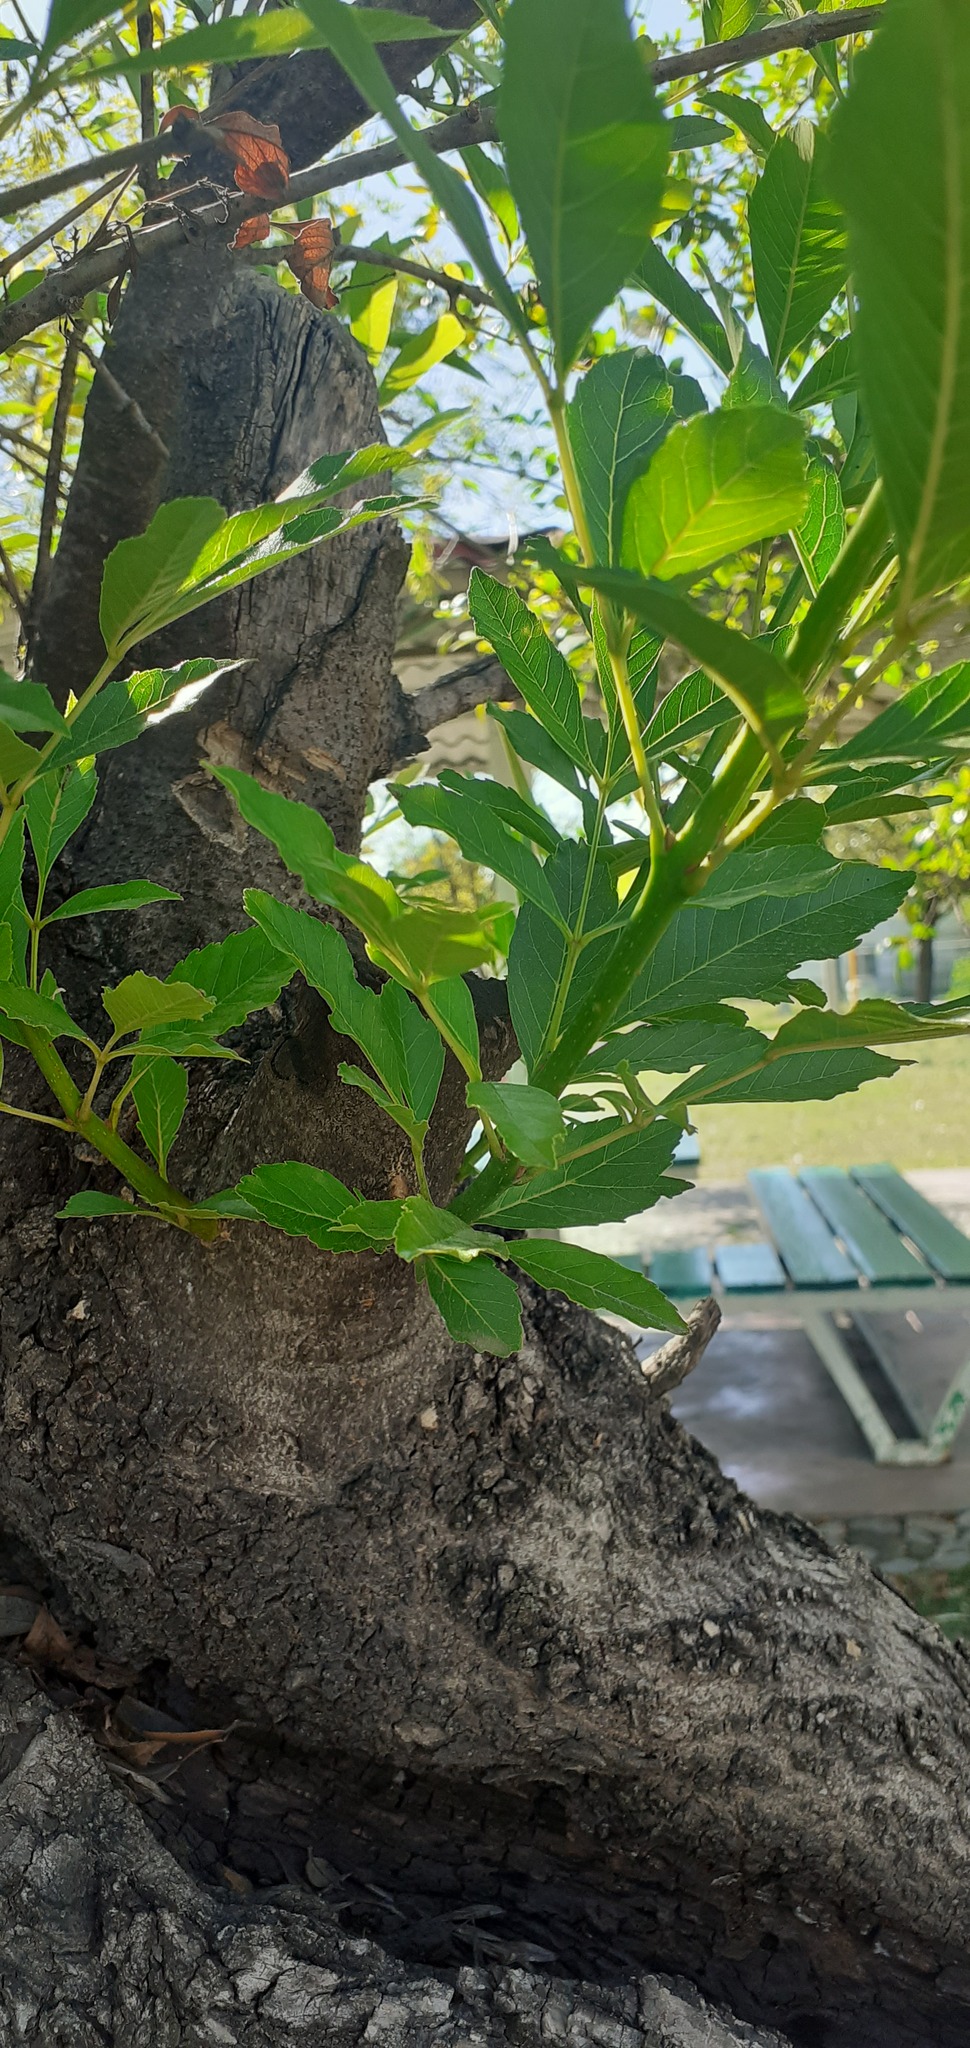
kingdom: Plantae
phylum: Tracheophyta
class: Magnoliopsida
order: Lamiales
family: Oleaceae
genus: Fraxinus
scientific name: Fraxinus berlandieriana
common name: Berlandier ash
